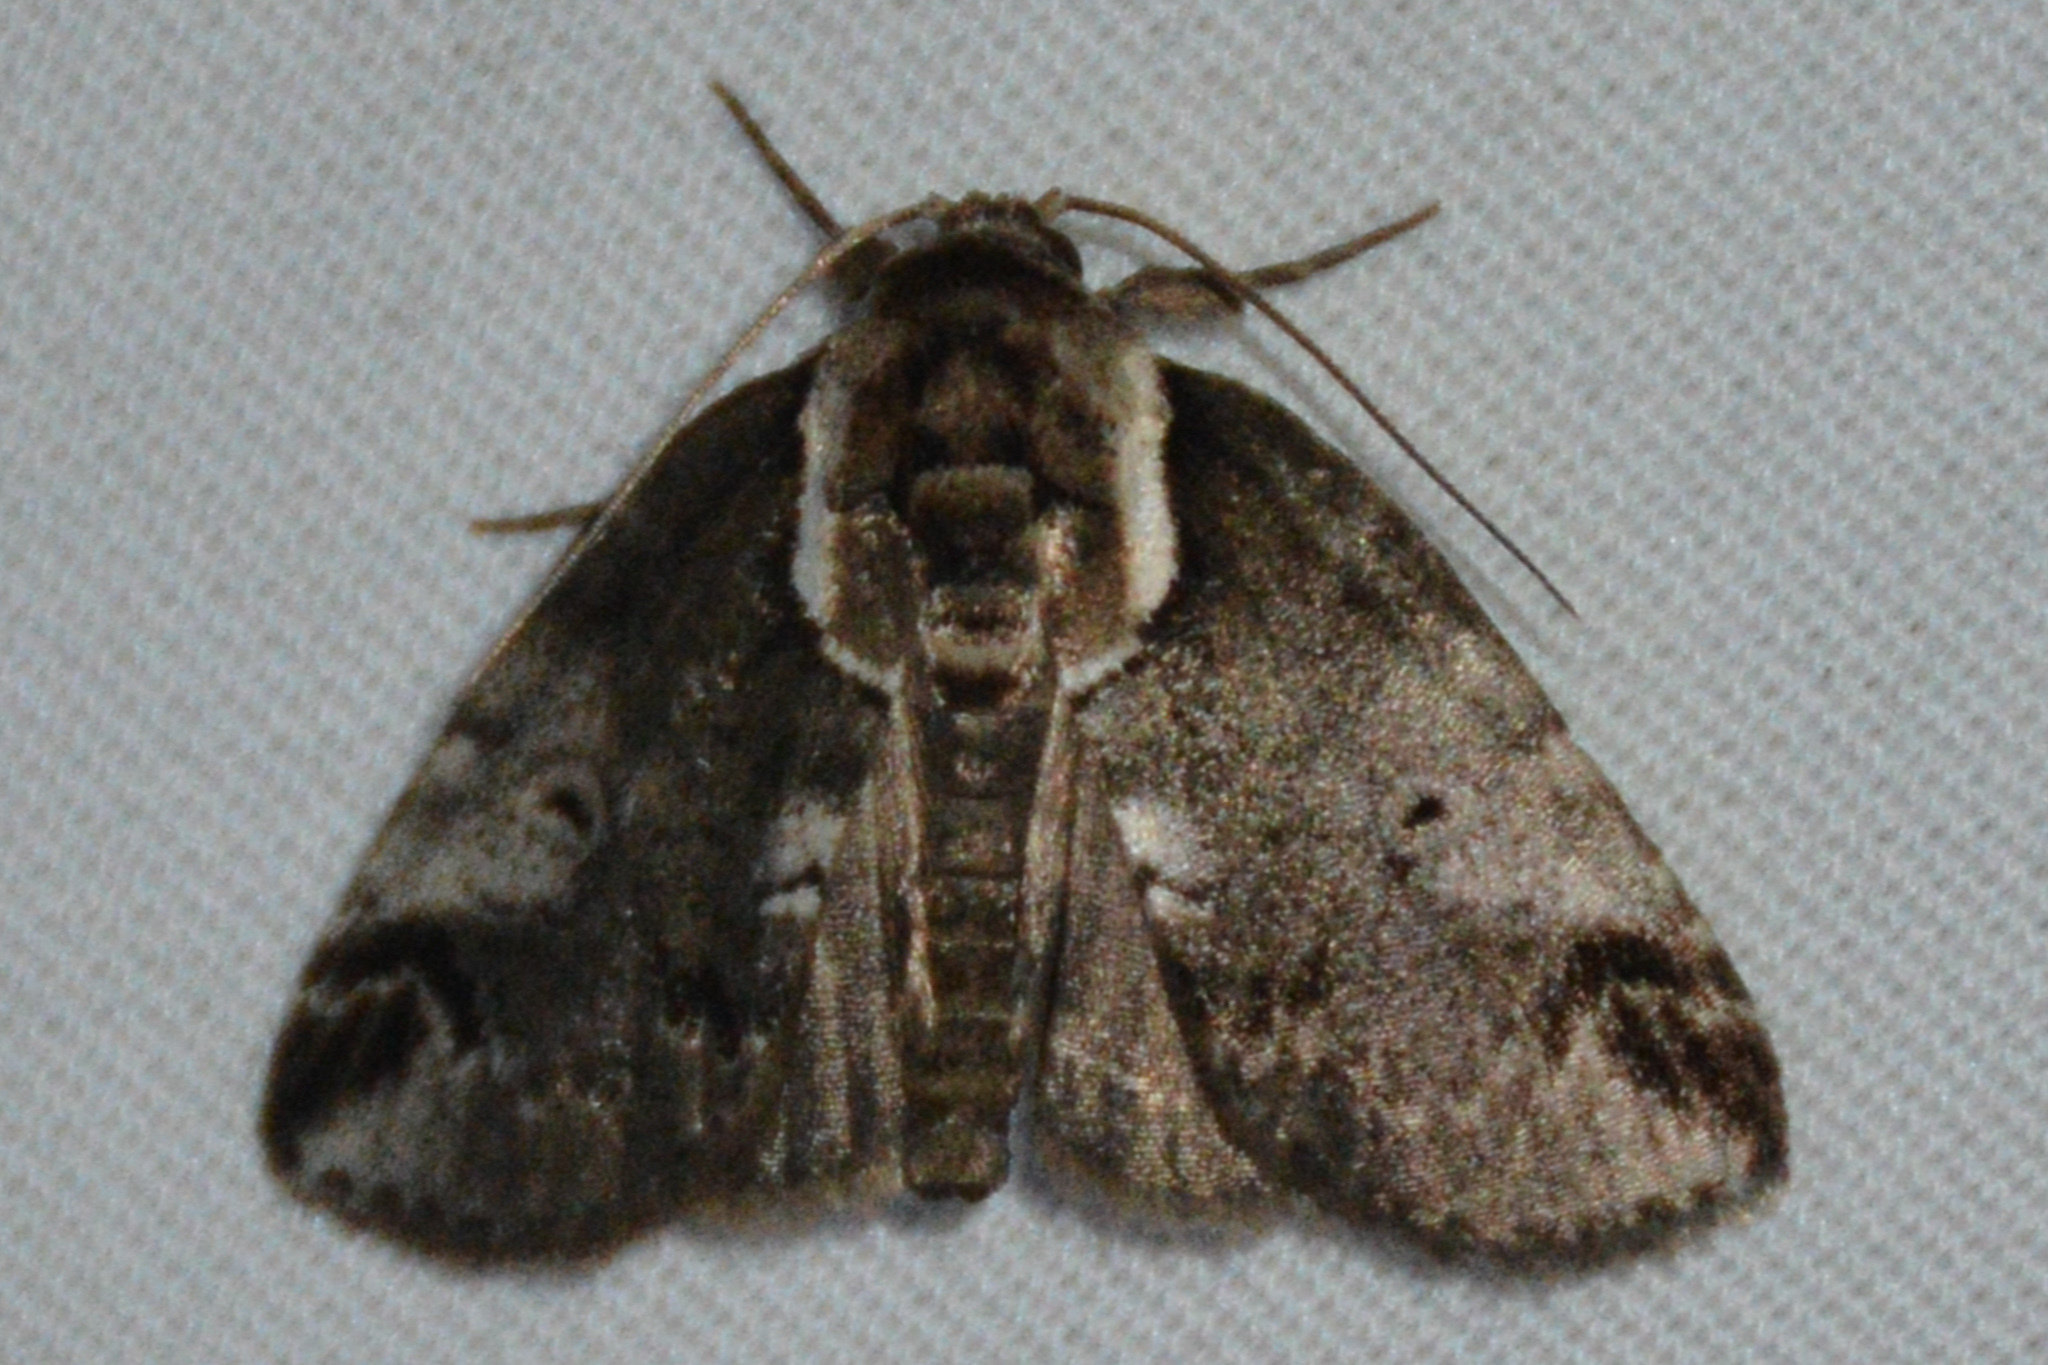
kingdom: Animalia
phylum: Arthropoda
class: Insecta
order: Lepidoptera
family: Nolidae
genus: Baileya
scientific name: Baileya ophthalmica
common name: Eyed baileya moth
